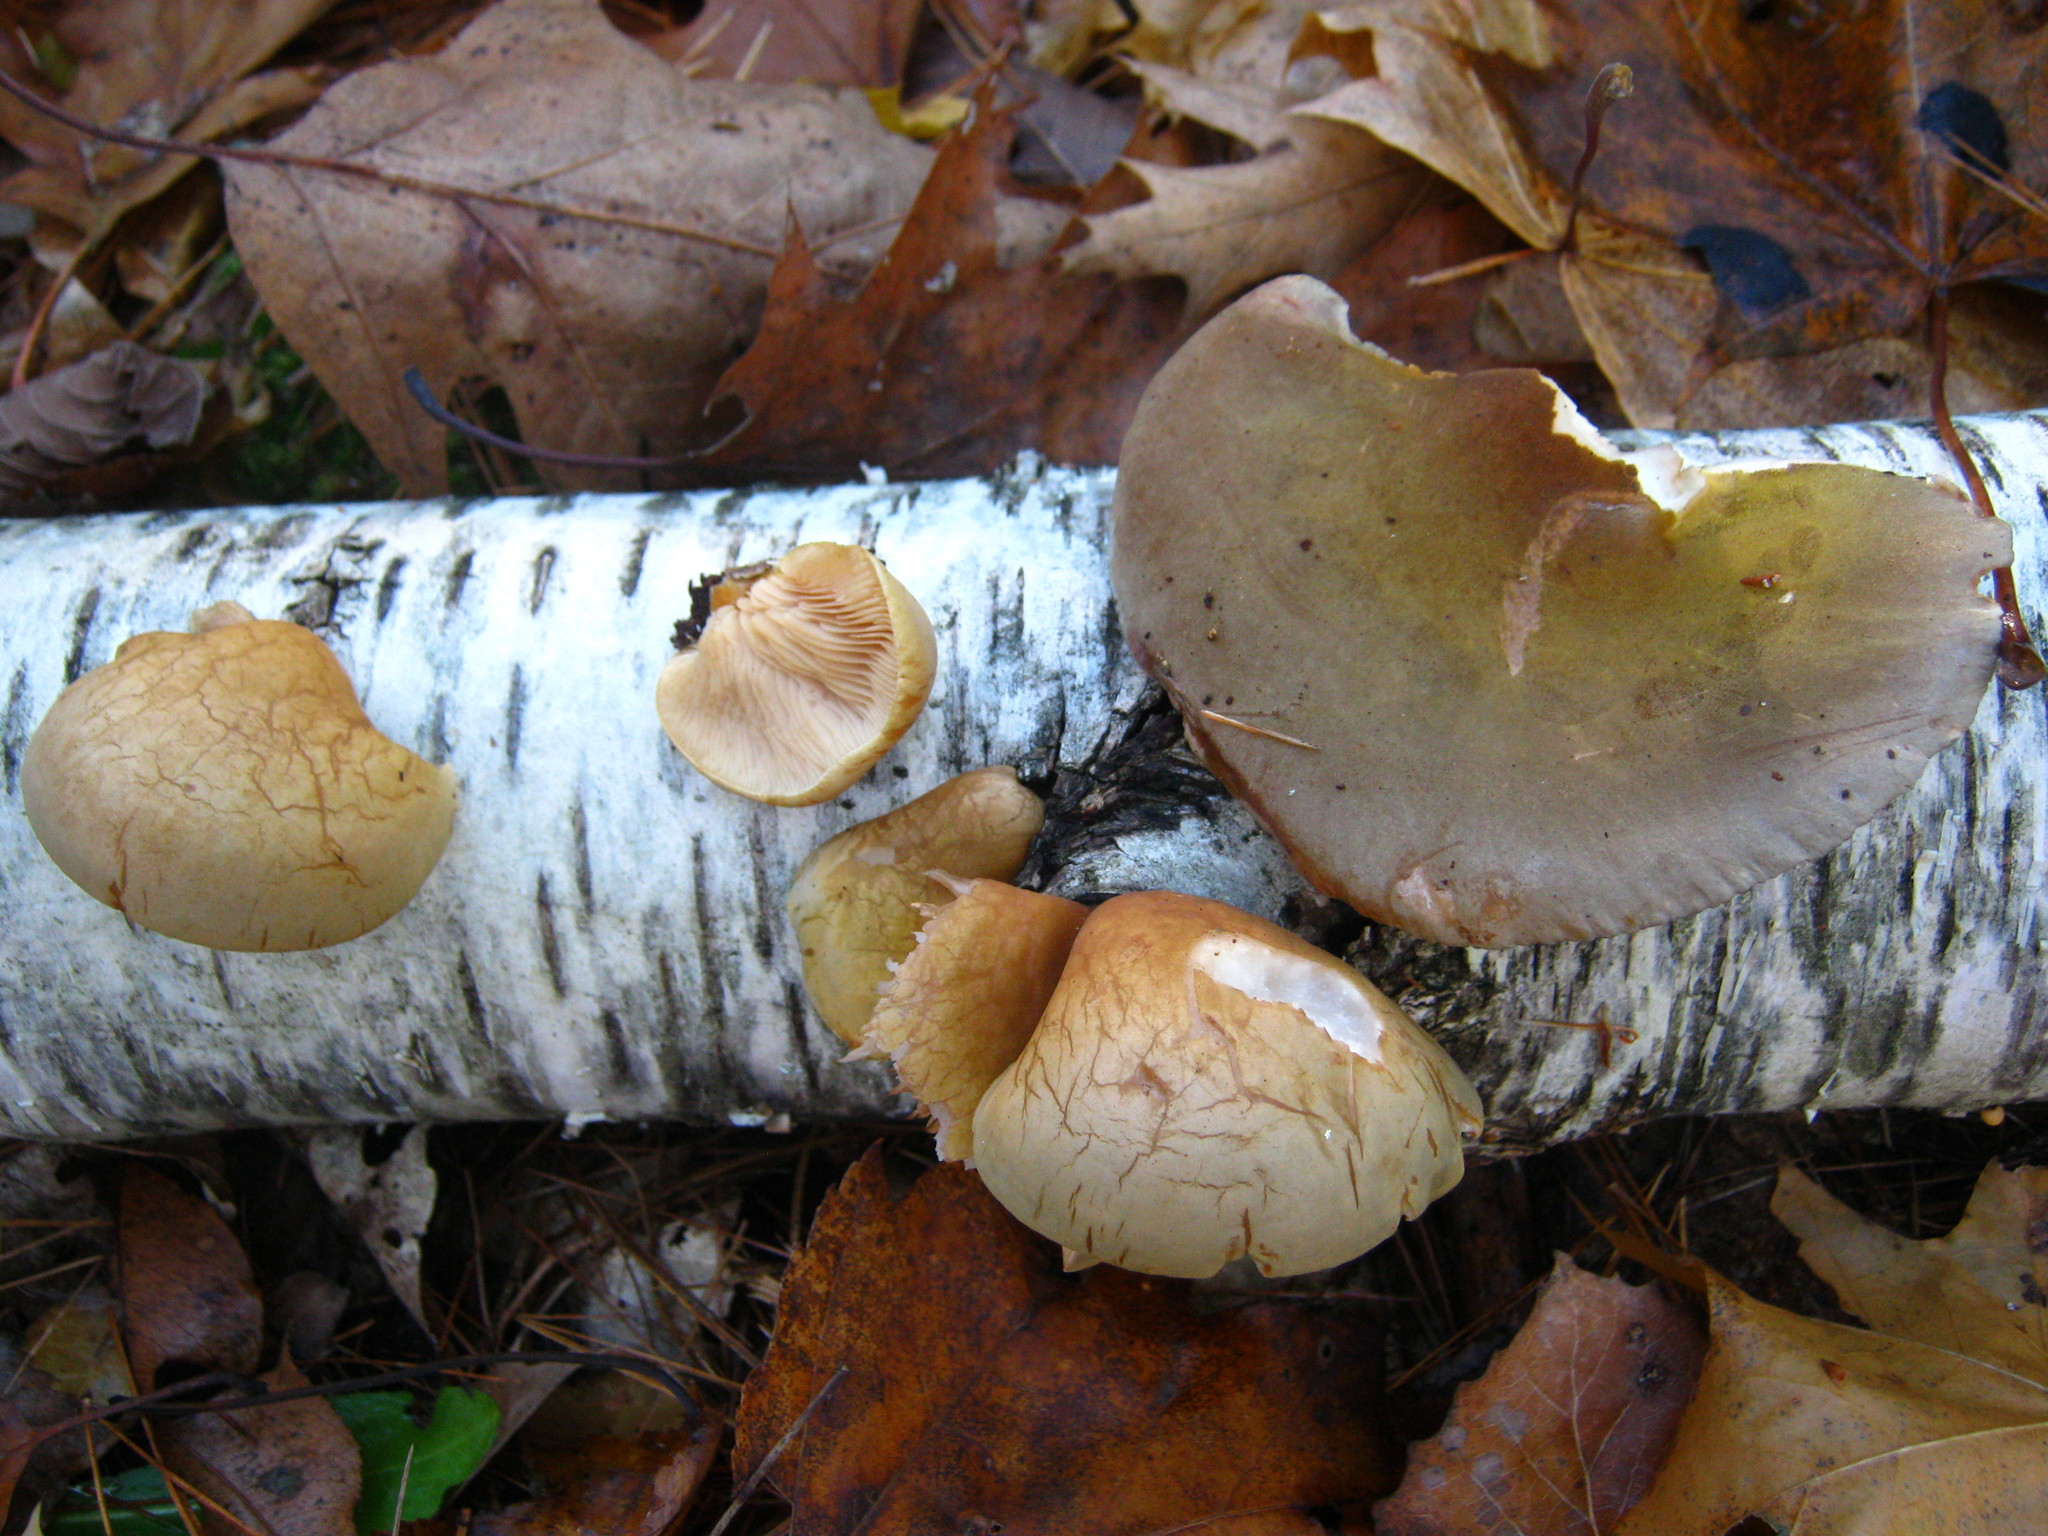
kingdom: Fungi
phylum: Basidiomycota
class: Agaricomycetes
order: Agaricales
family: Sarcomyxaceae
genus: Sarcomyxa
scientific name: Sarcomyxa serotina
